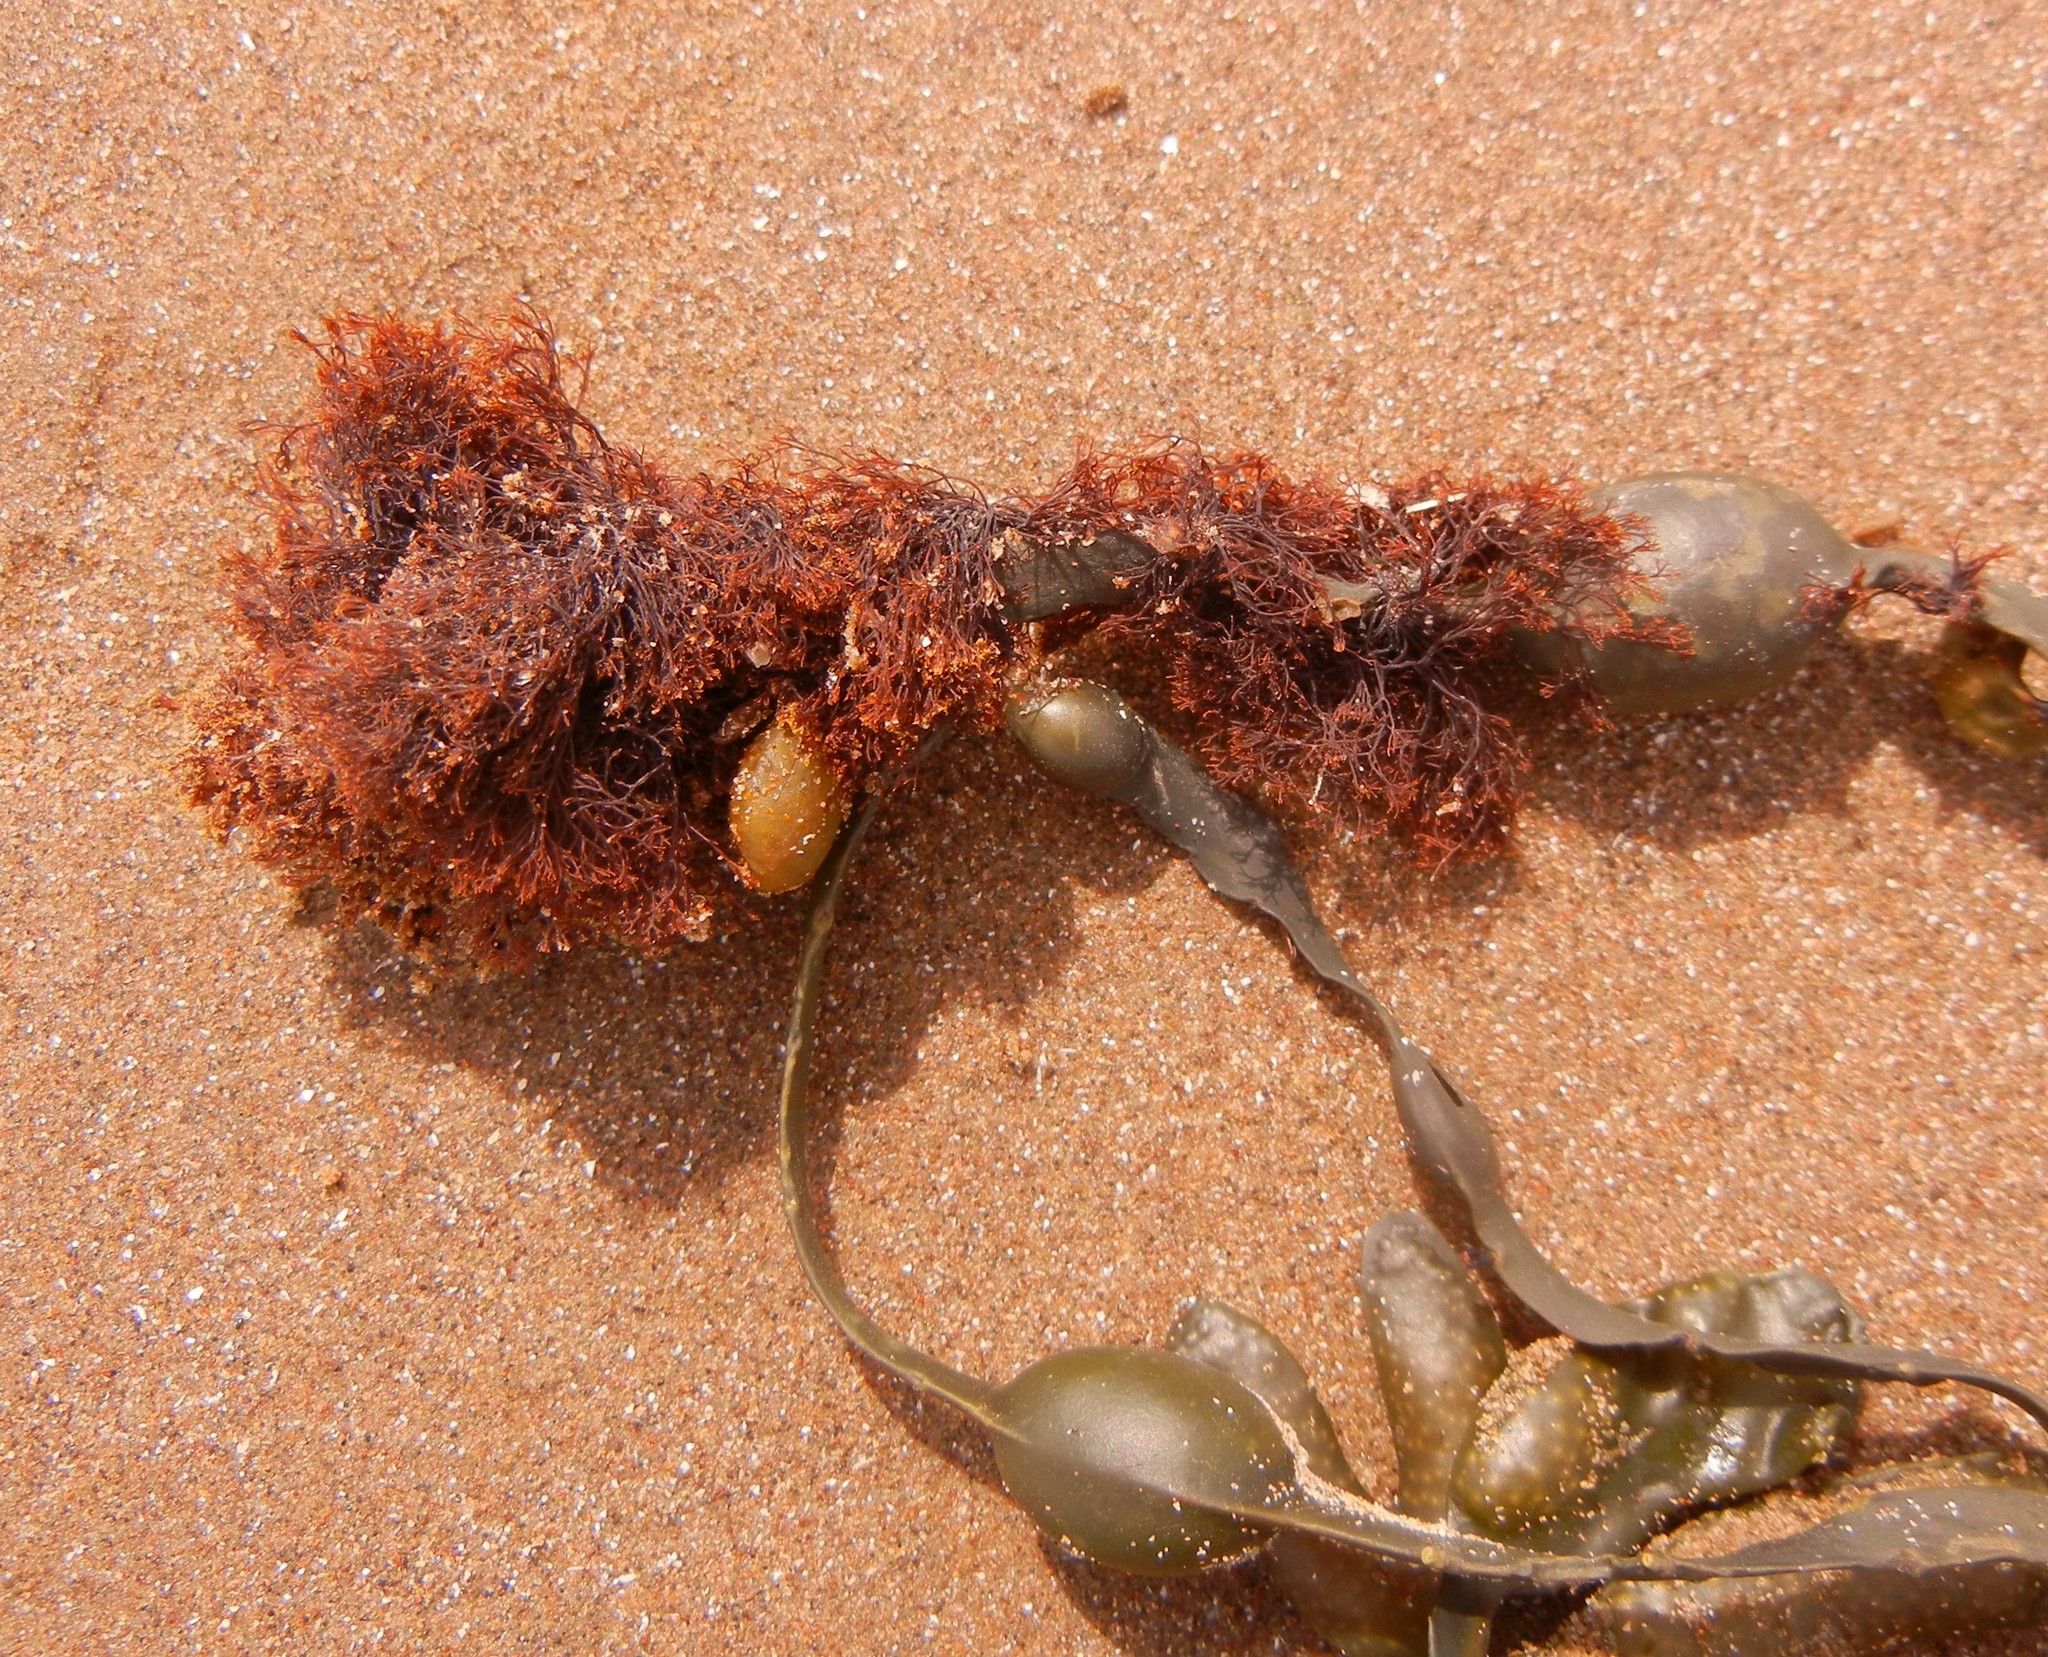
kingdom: Plantae
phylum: Rhodophyta
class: Florideophyceae
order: Ceramiales
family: Rhodomelaceae
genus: Vertebrata
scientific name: Vertebrata lanosa
